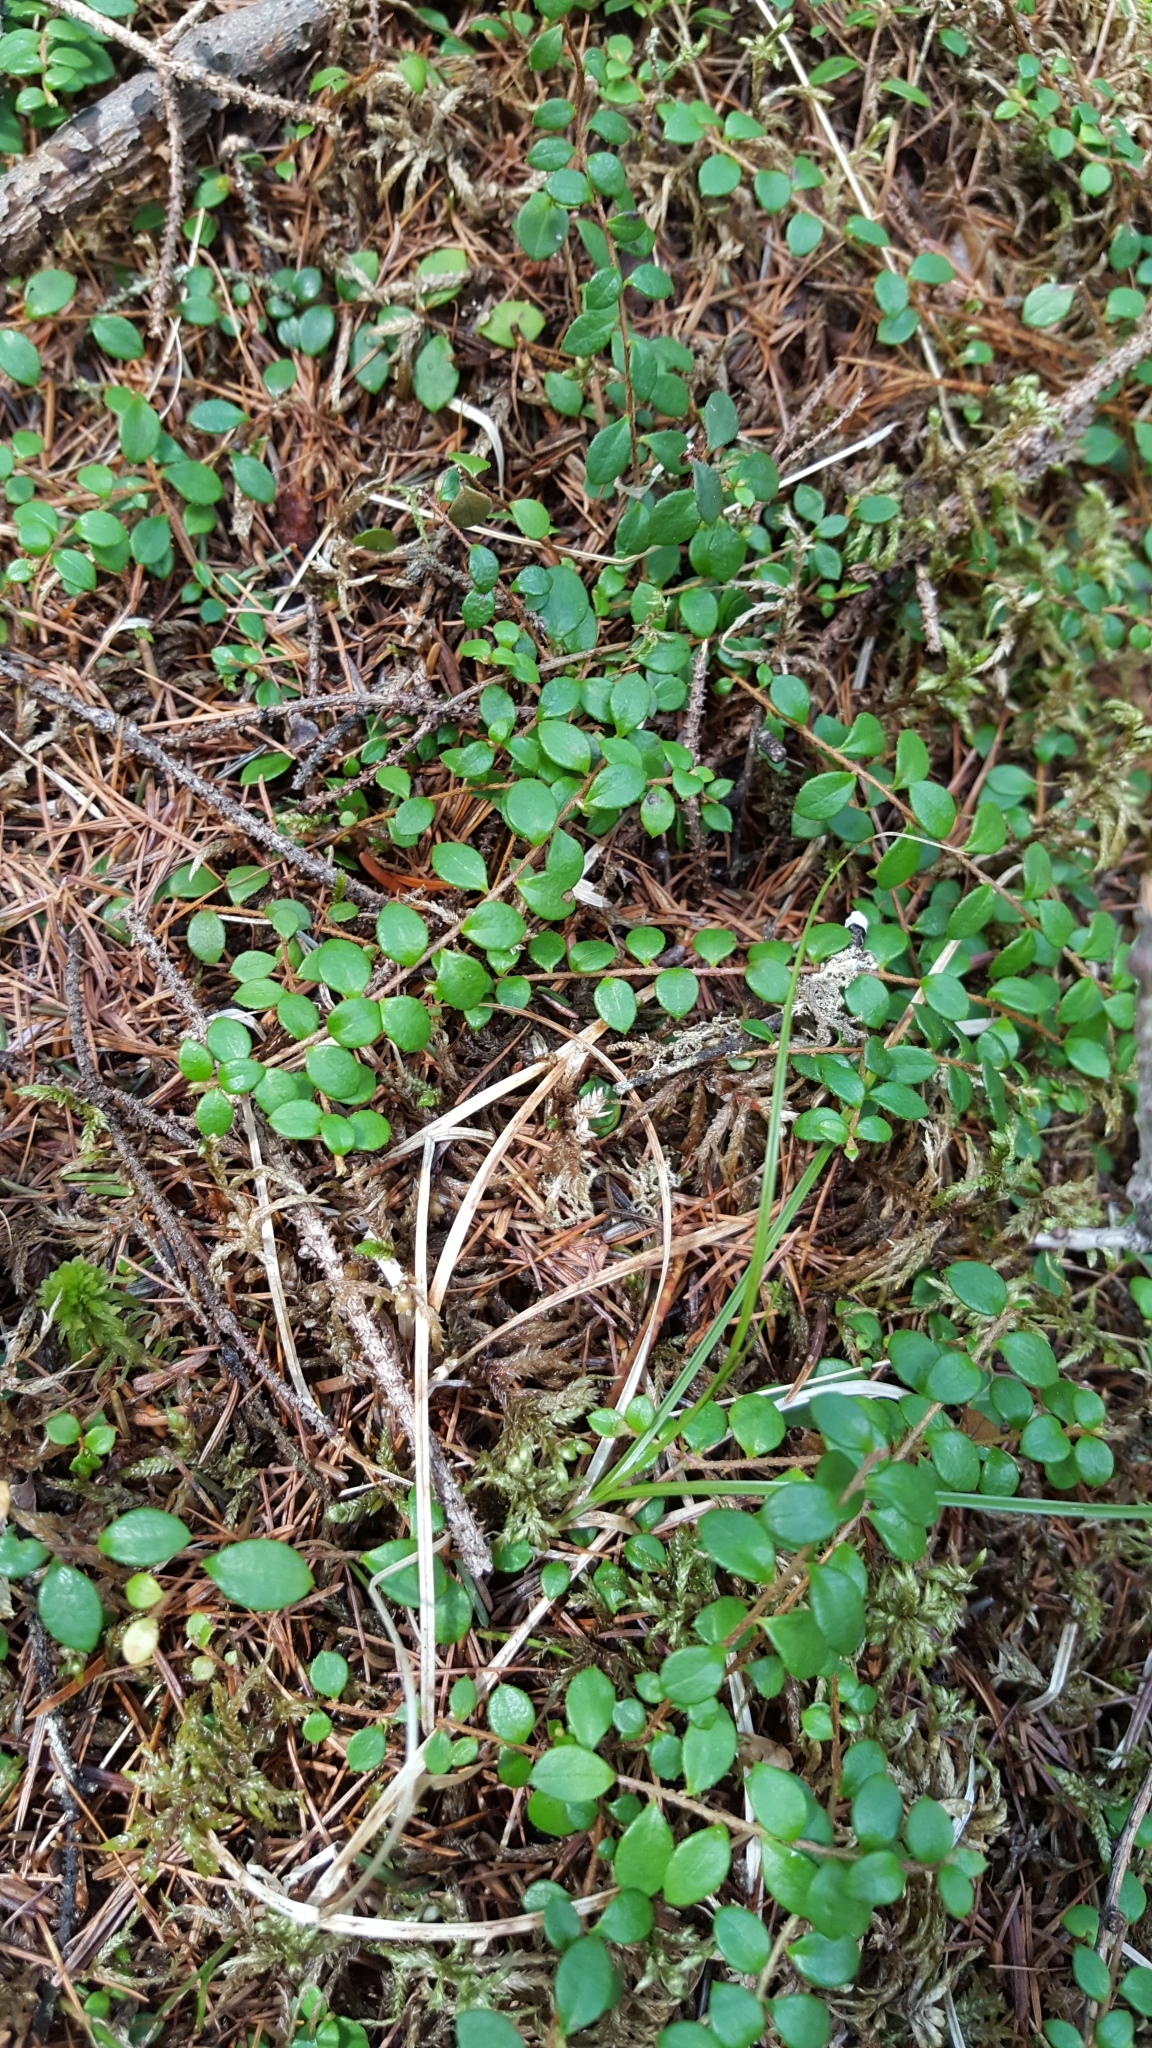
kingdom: Plantae
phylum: Tracheophyta
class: Magnoliopsida
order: Ericales
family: Ericaceae
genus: Gaultheria
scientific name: Gaultheria hispidula
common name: Cancer wintergreen
